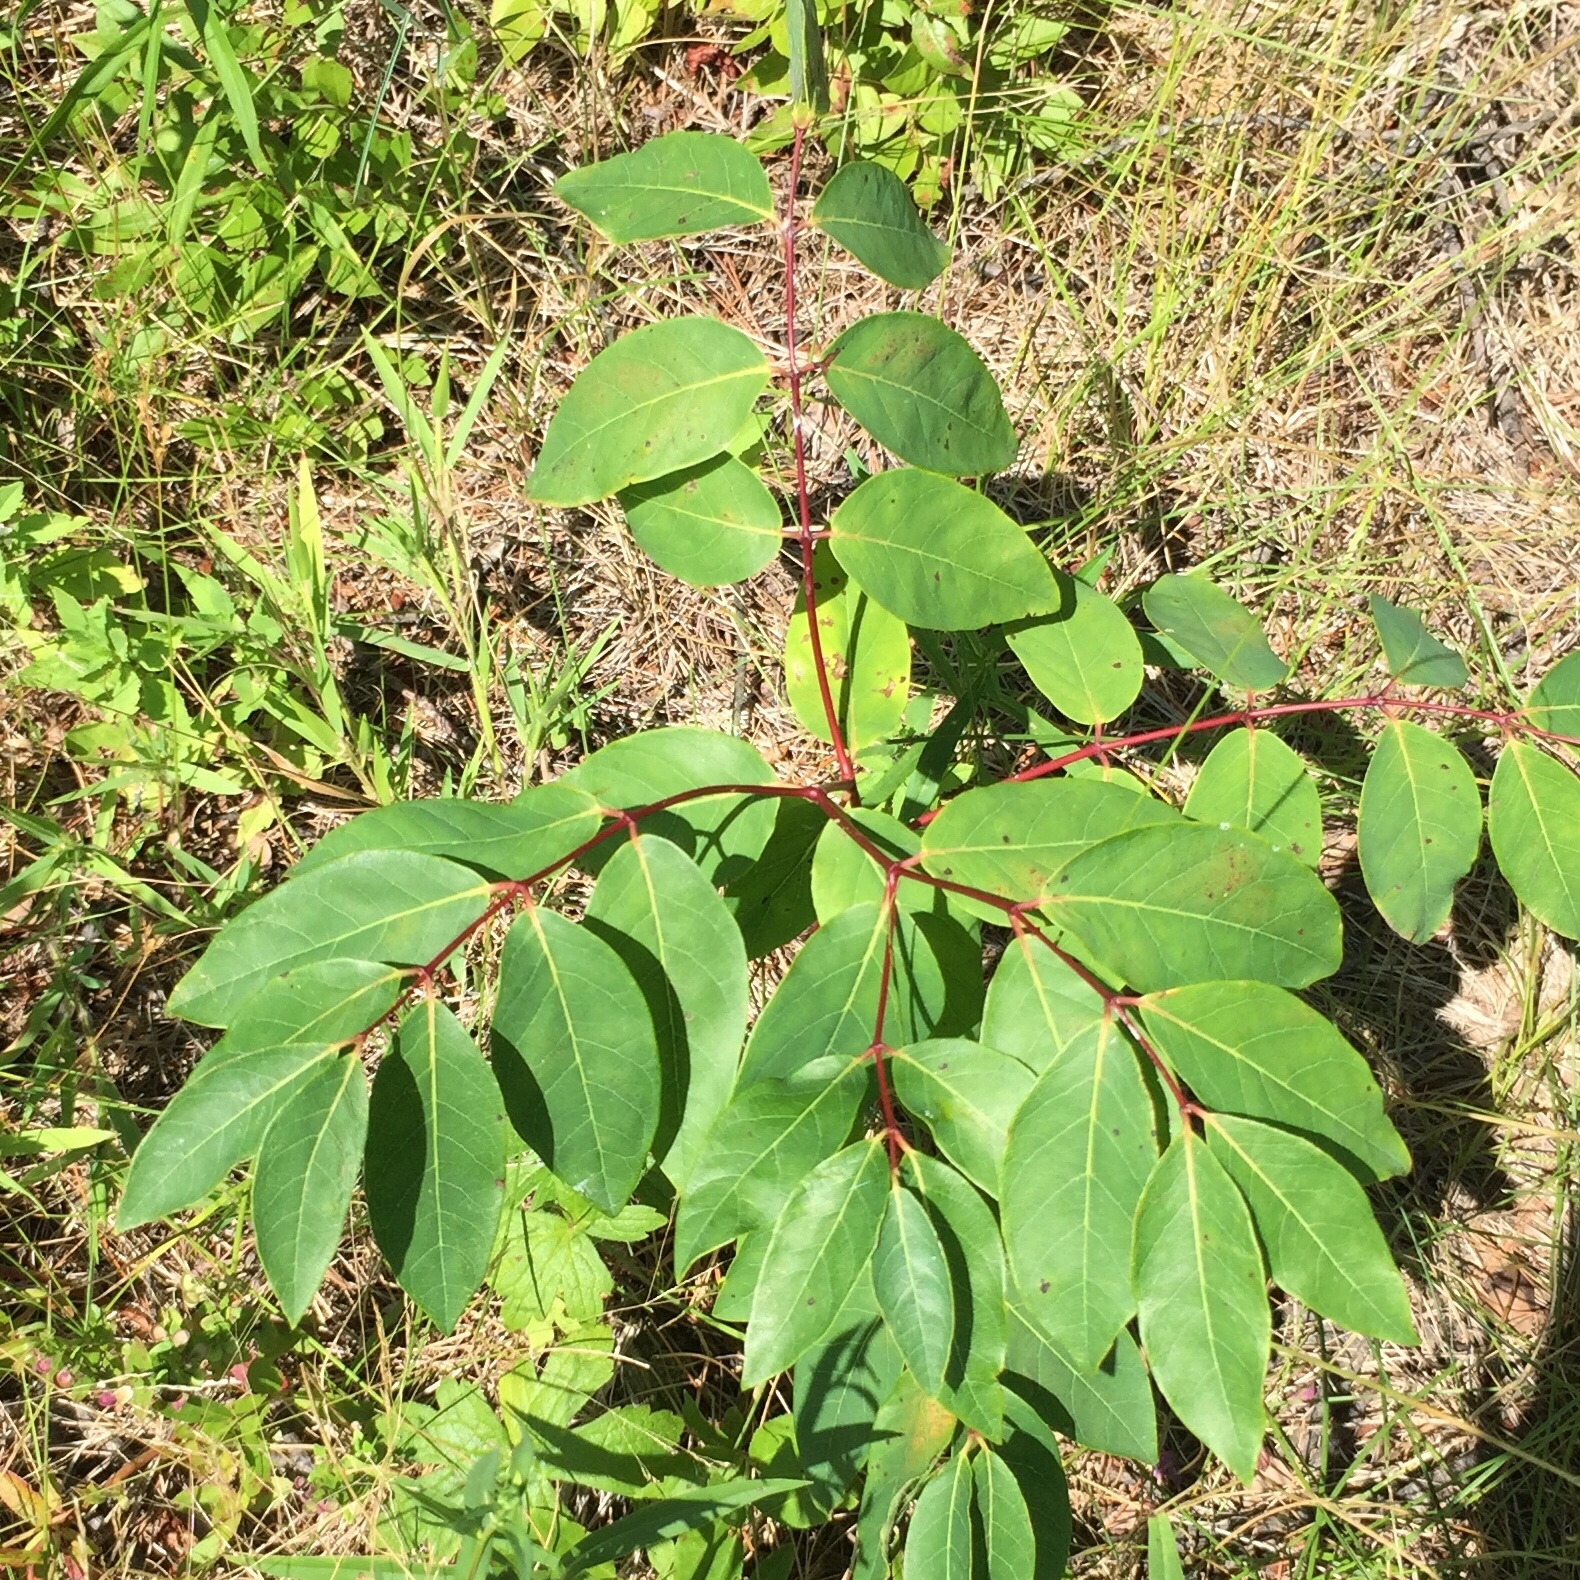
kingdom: Plantae
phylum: Tracheophyta
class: Magnoliopsida
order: Gentianales
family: Apocynaceae
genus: Apocynum
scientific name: Apocynum androsaemifolium
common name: Spreading dogbane
